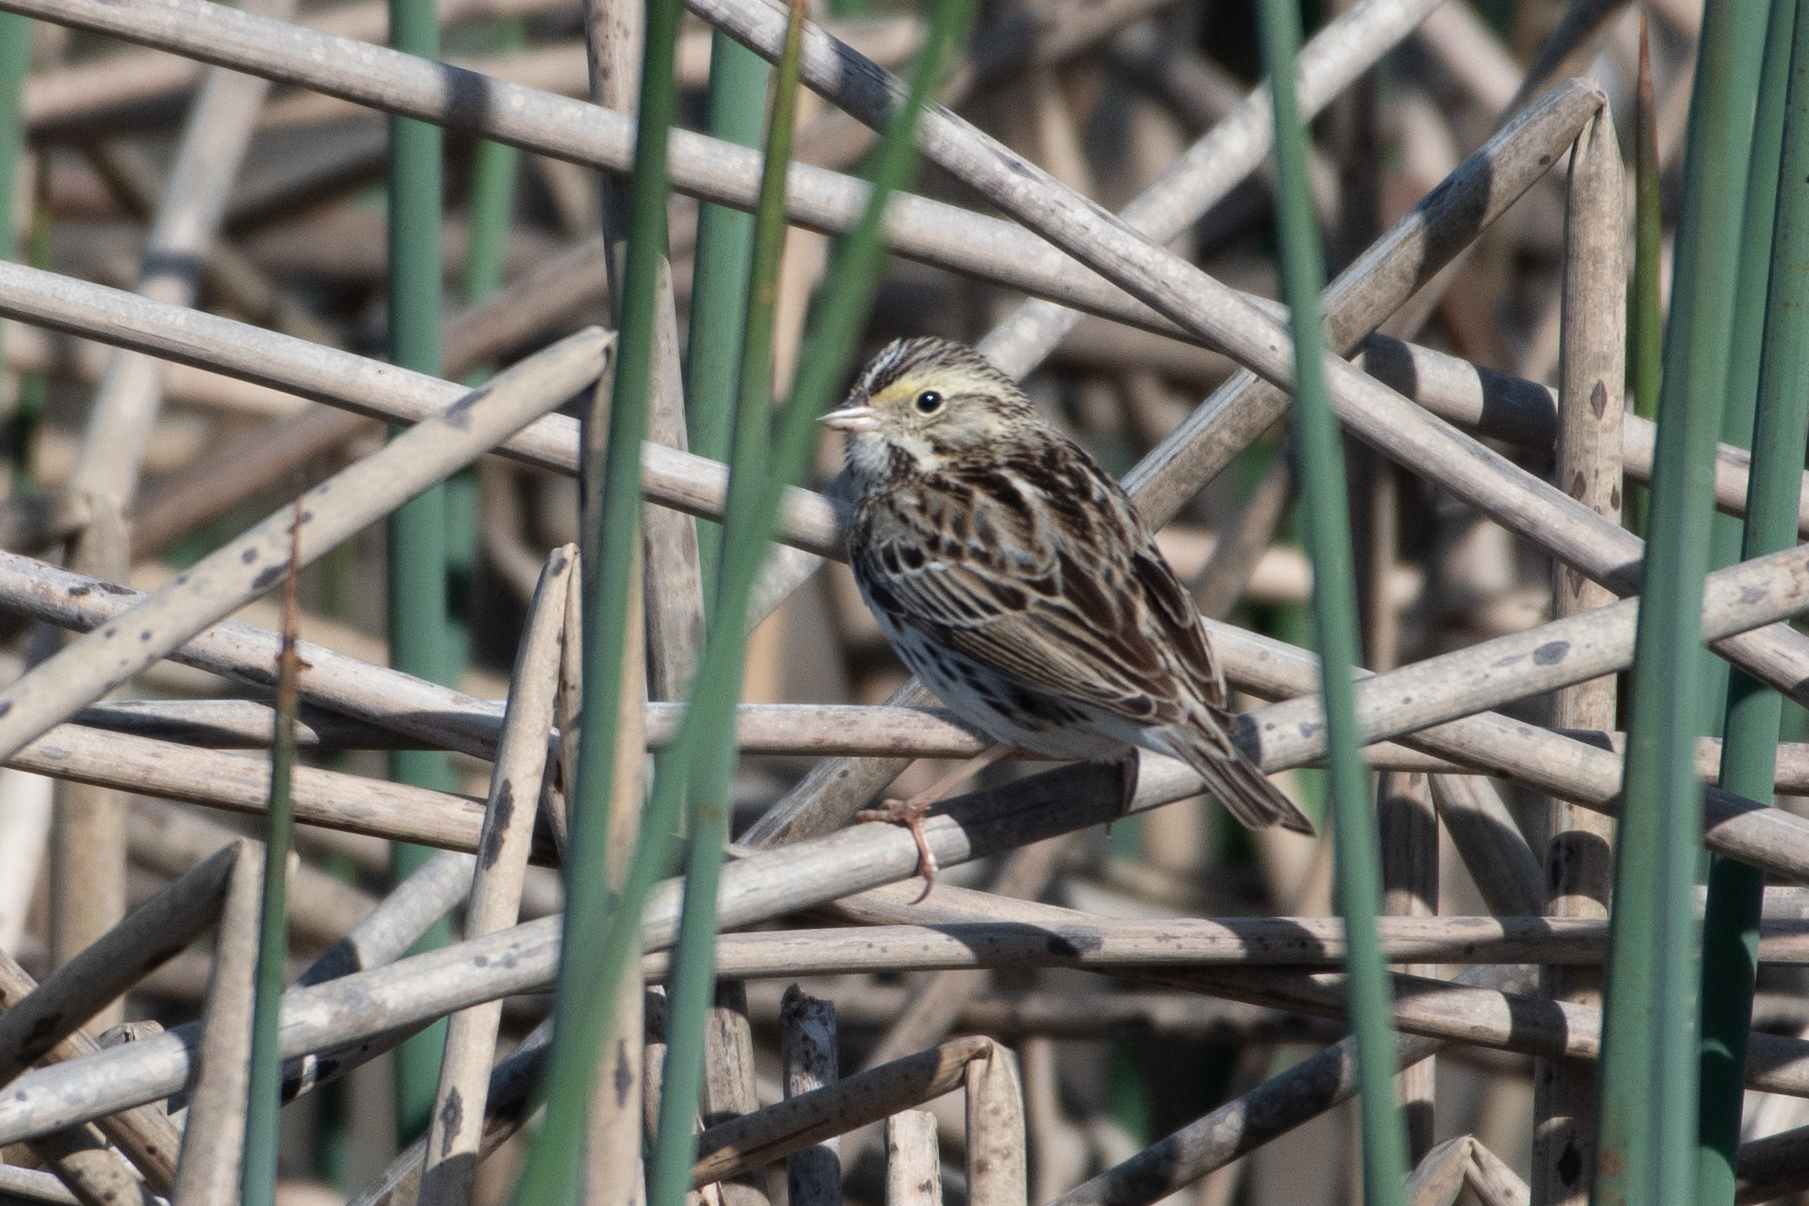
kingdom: Animalia
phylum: Chordata
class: Aves
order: Passeriformes
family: Passerellidae
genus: Passerculus
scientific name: Passerculus sandwichensis
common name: Savannah sparrow
